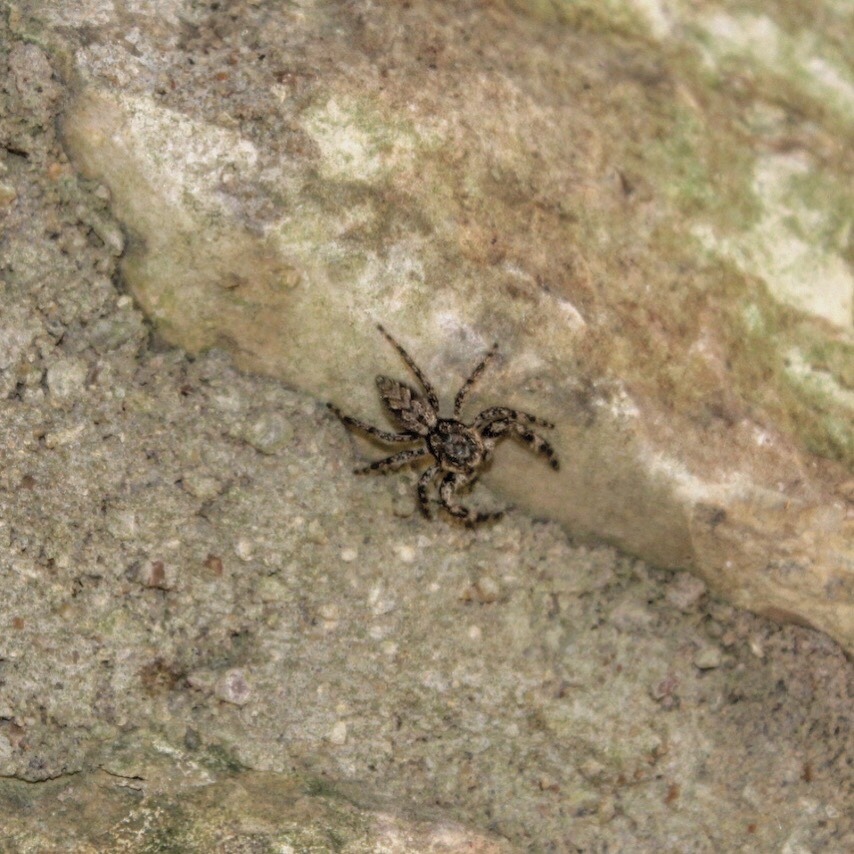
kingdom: Animalia
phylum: Arthropoda
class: Arachnida
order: Araneae
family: Salticidae
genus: Platycryptus
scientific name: Platycryptus undatus
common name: Tan jumping spider
